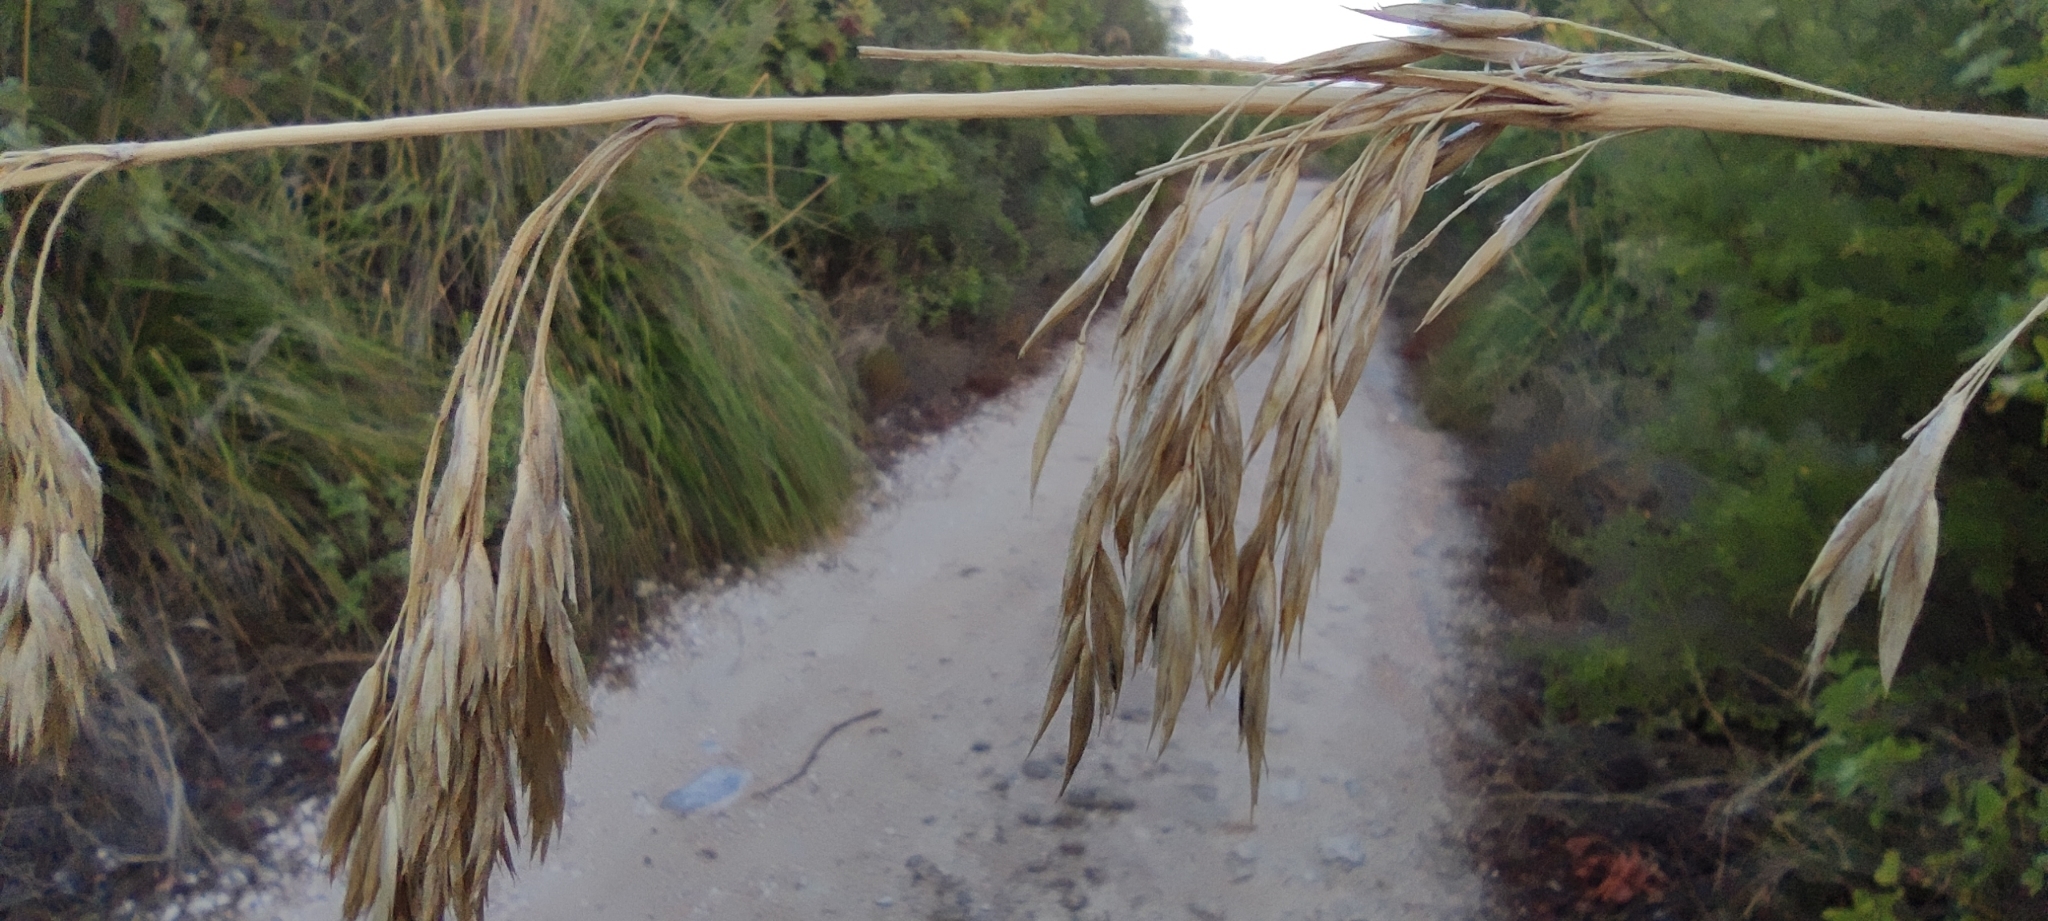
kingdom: Plantae
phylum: Tracheophyta
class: Liliopsida
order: Poales
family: Poaceae
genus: Ampelodesmos
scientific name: Ampelodesmos mauritanicus
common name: Mauritanian grass
